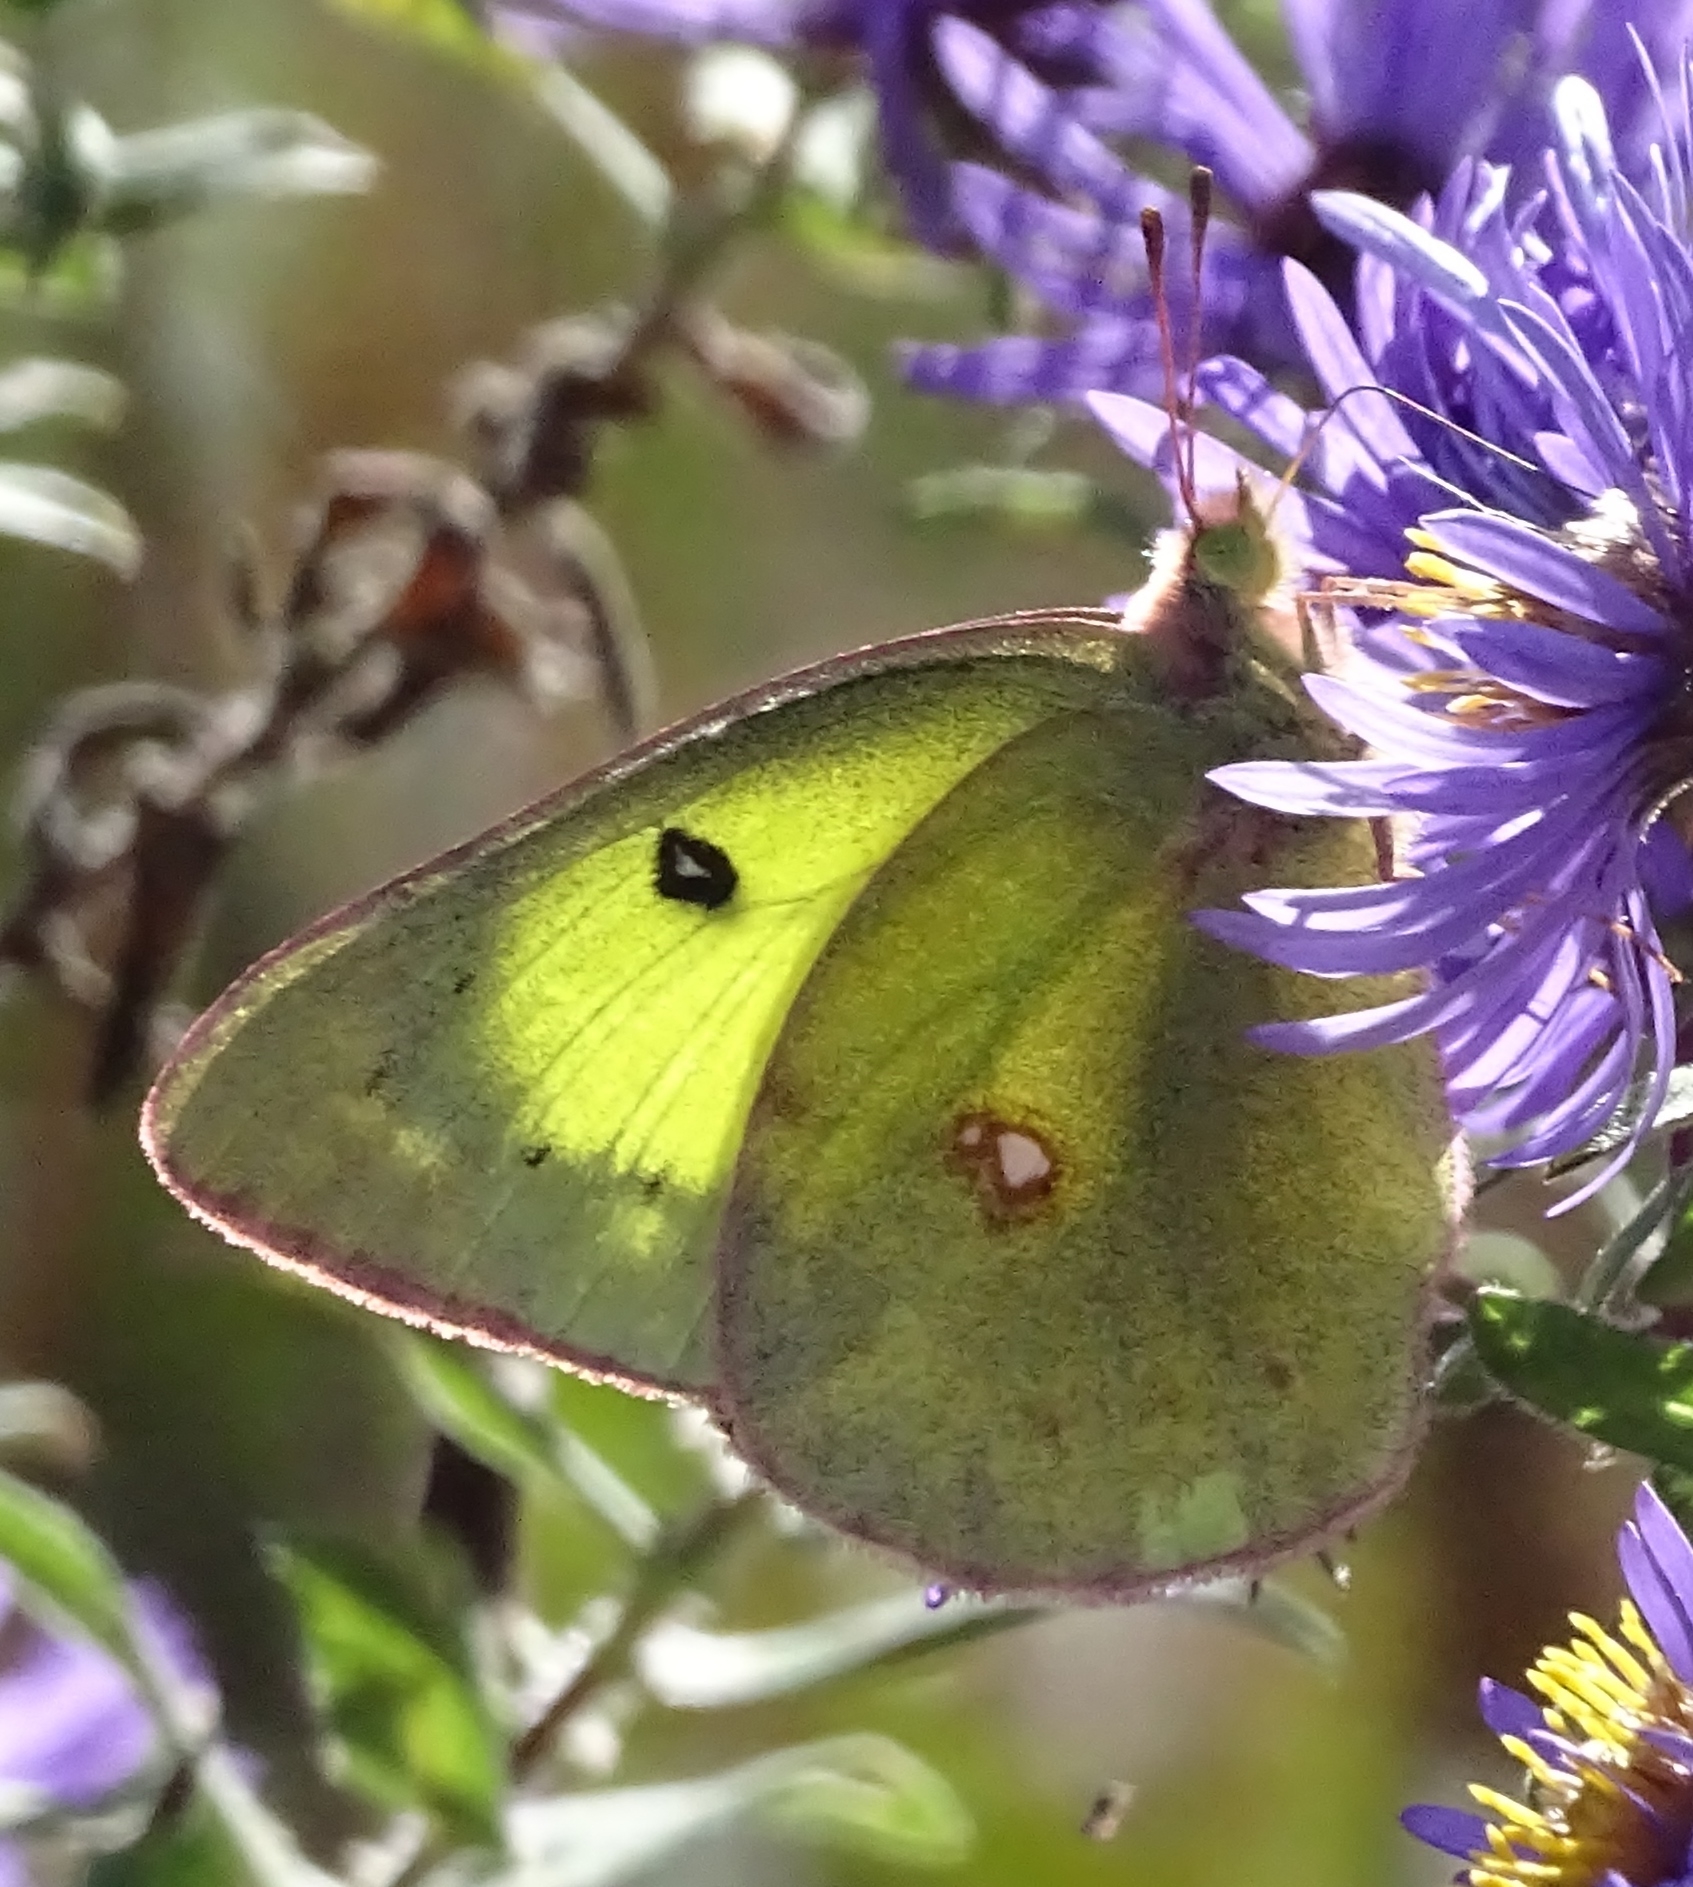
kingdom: Animalia
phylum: Arthropoda
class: Insecta
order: Lepidoptera
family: Pieridae
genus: Colias
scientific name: Colias philodice
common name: Clouded sulphur
